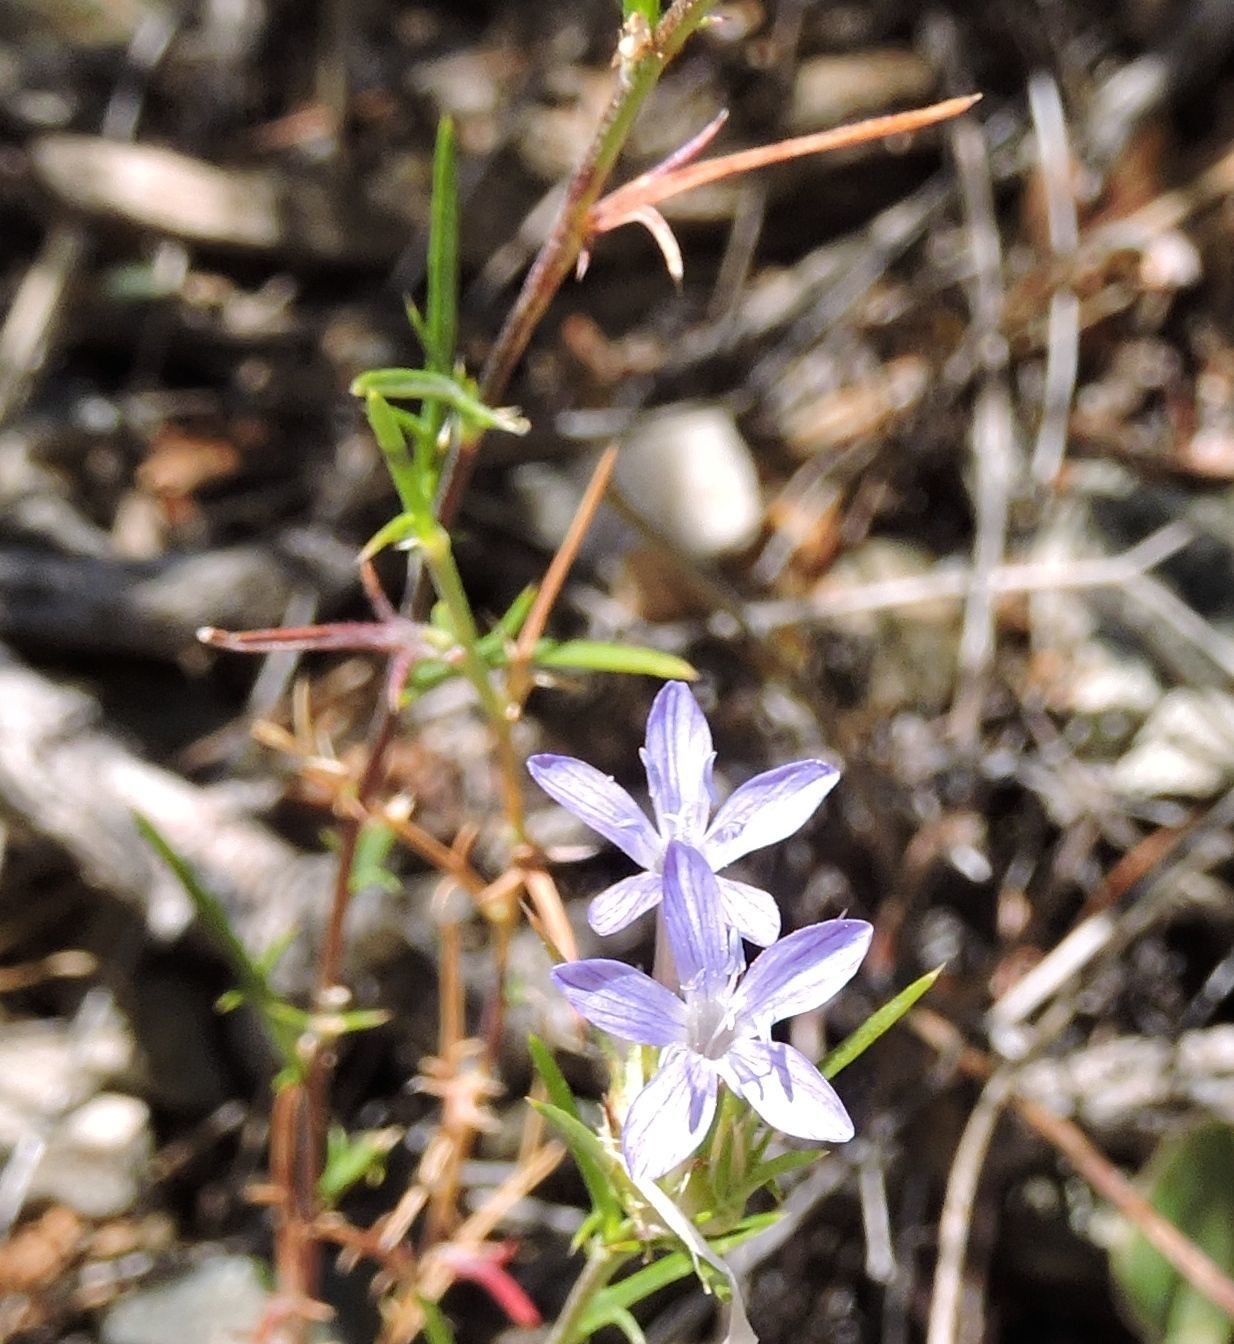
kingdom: Plantae
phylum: Tracheophyta
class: Magnoliopsida
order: Ericales
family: Polemoniaceae
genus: Eriastrum
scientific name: Eriastrum densifolium
